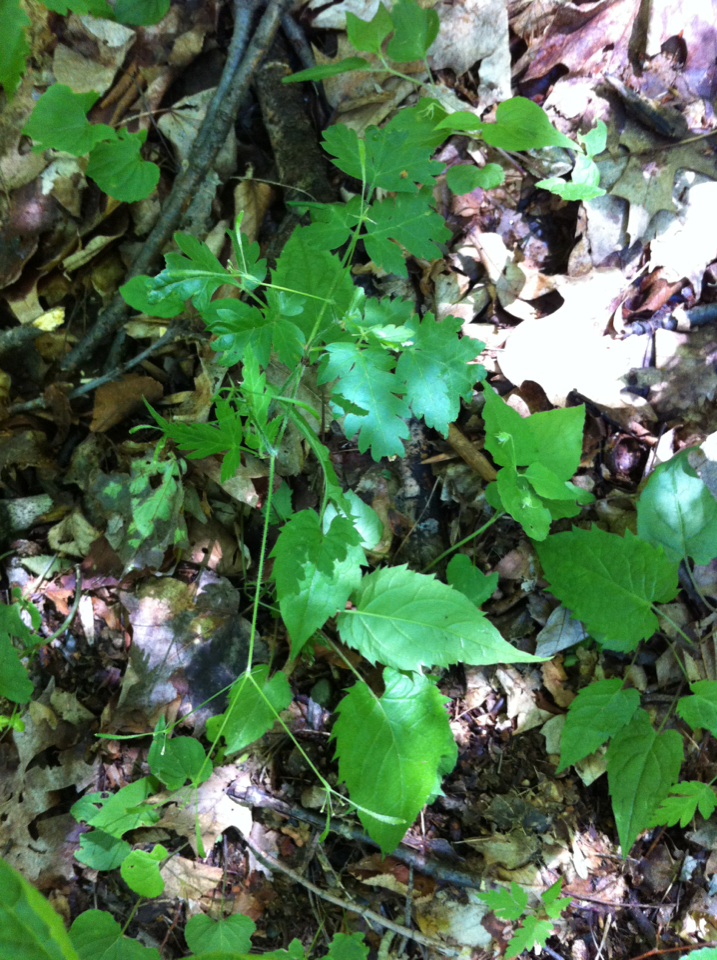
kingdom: Plantae
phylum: Tracheophyta
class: Magnoliopsida
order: Apiales
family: Apiaceae
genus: Osmorhiza
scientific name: Osmorhiza claytonii
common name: Hairy sweet cicely
